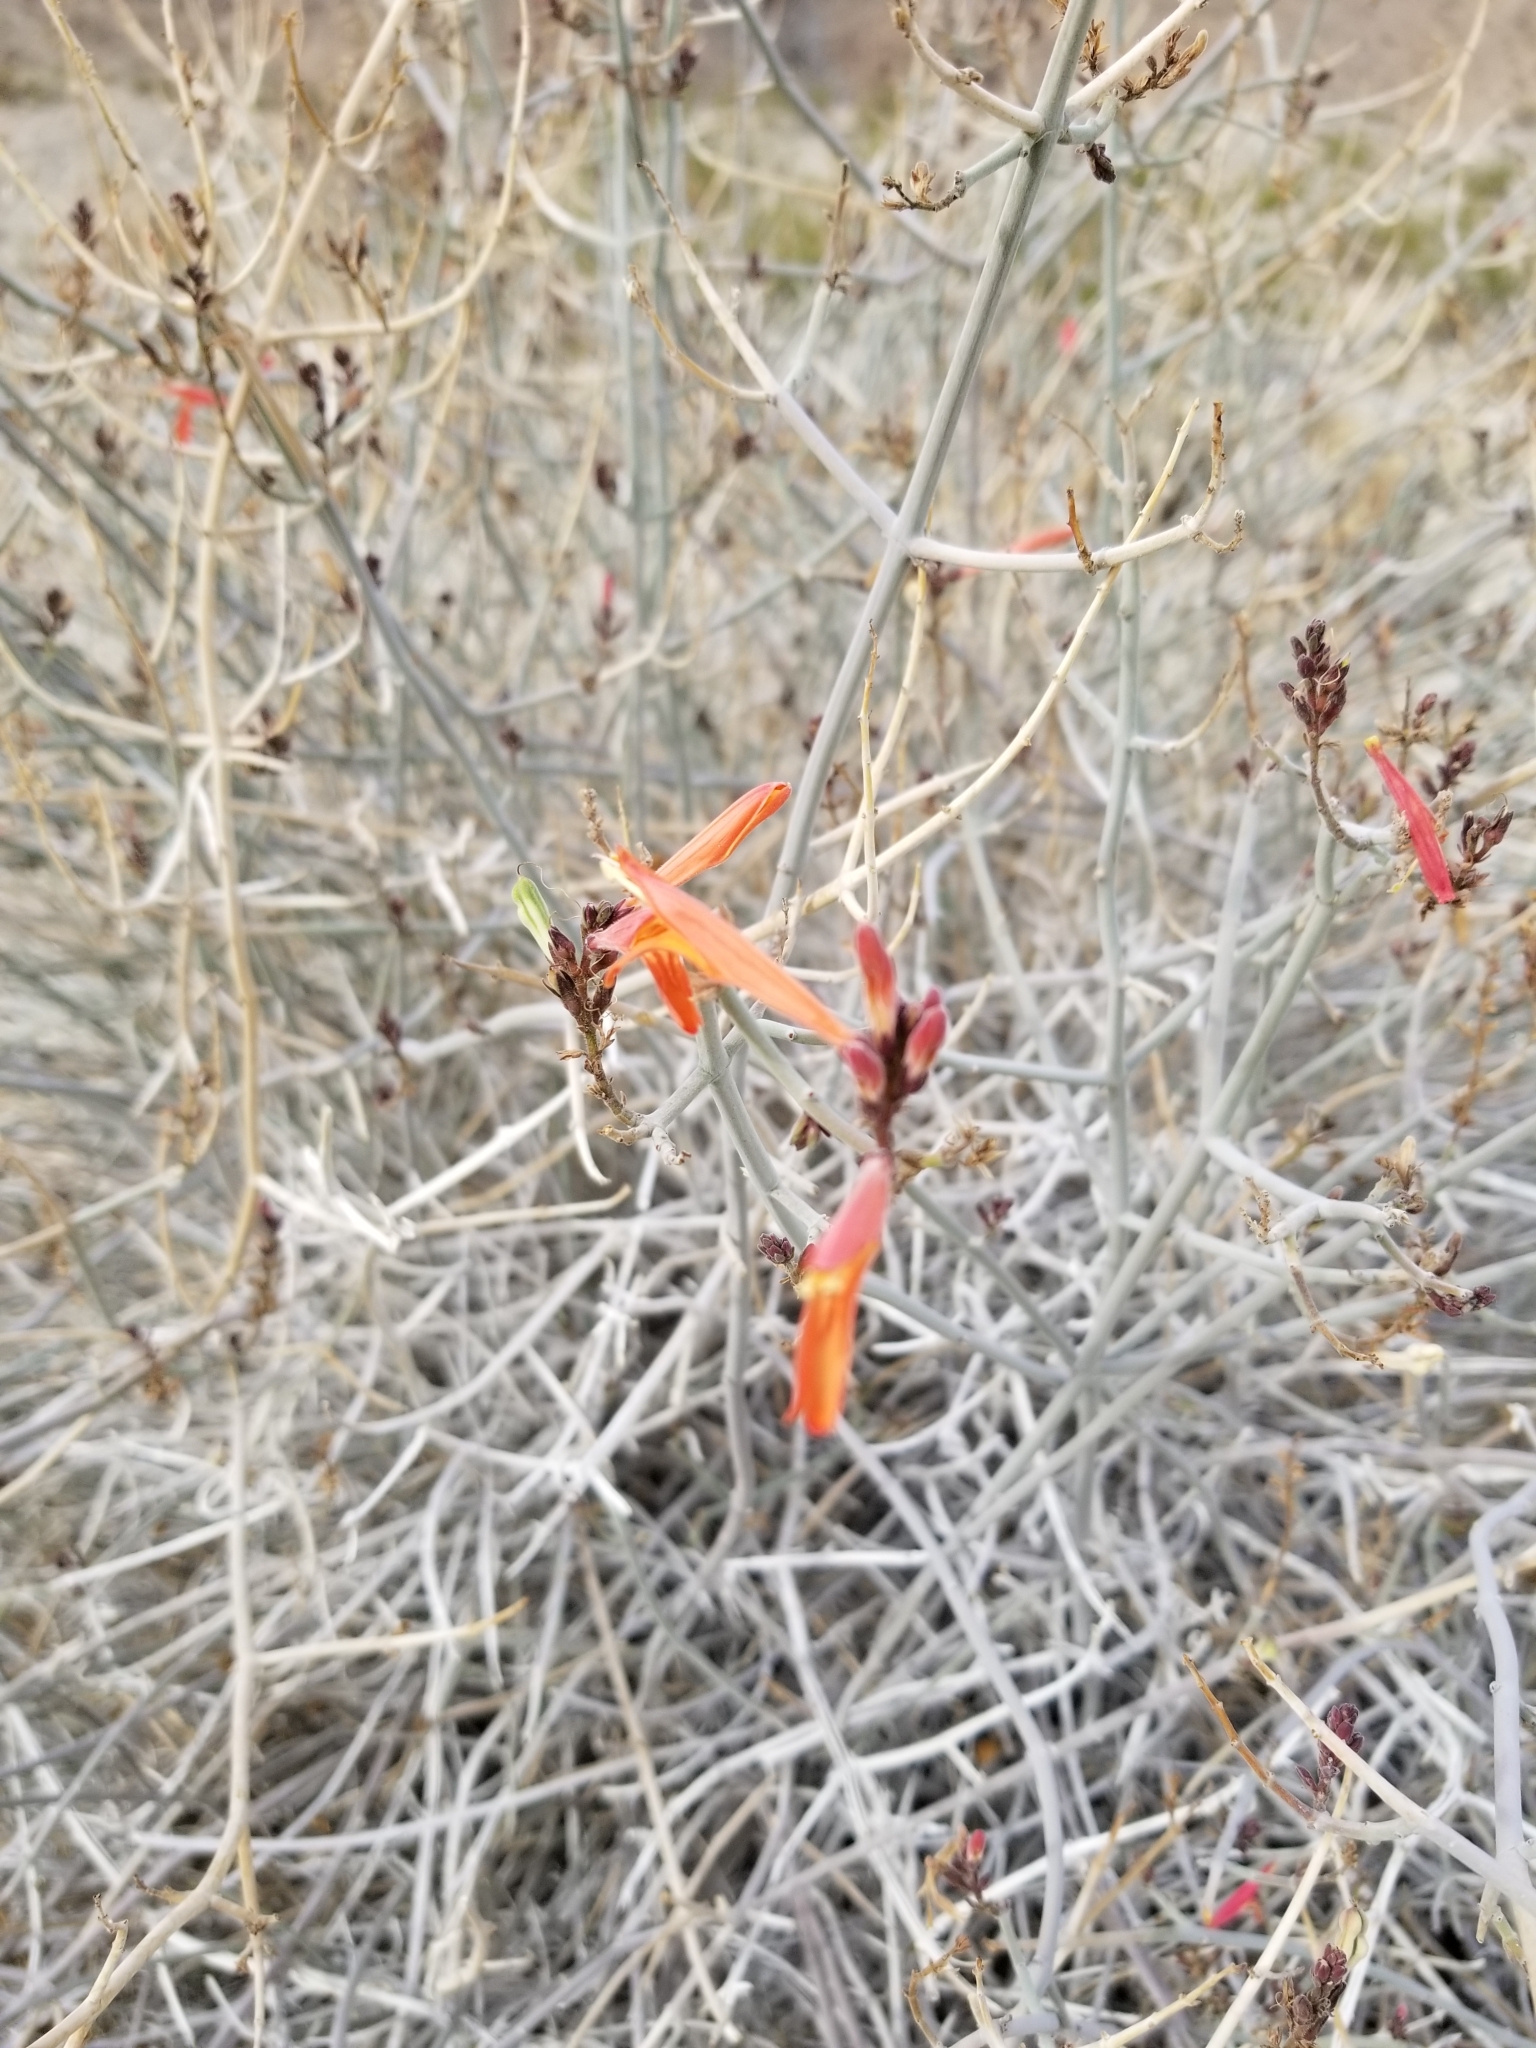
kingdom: Plantae
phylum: Tracheophyta
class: Magnoliopsida
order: Lamiales
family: Acanthaceae
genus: Justicia
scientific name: Justicia californica
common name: Chuparosa-honeysuckle
